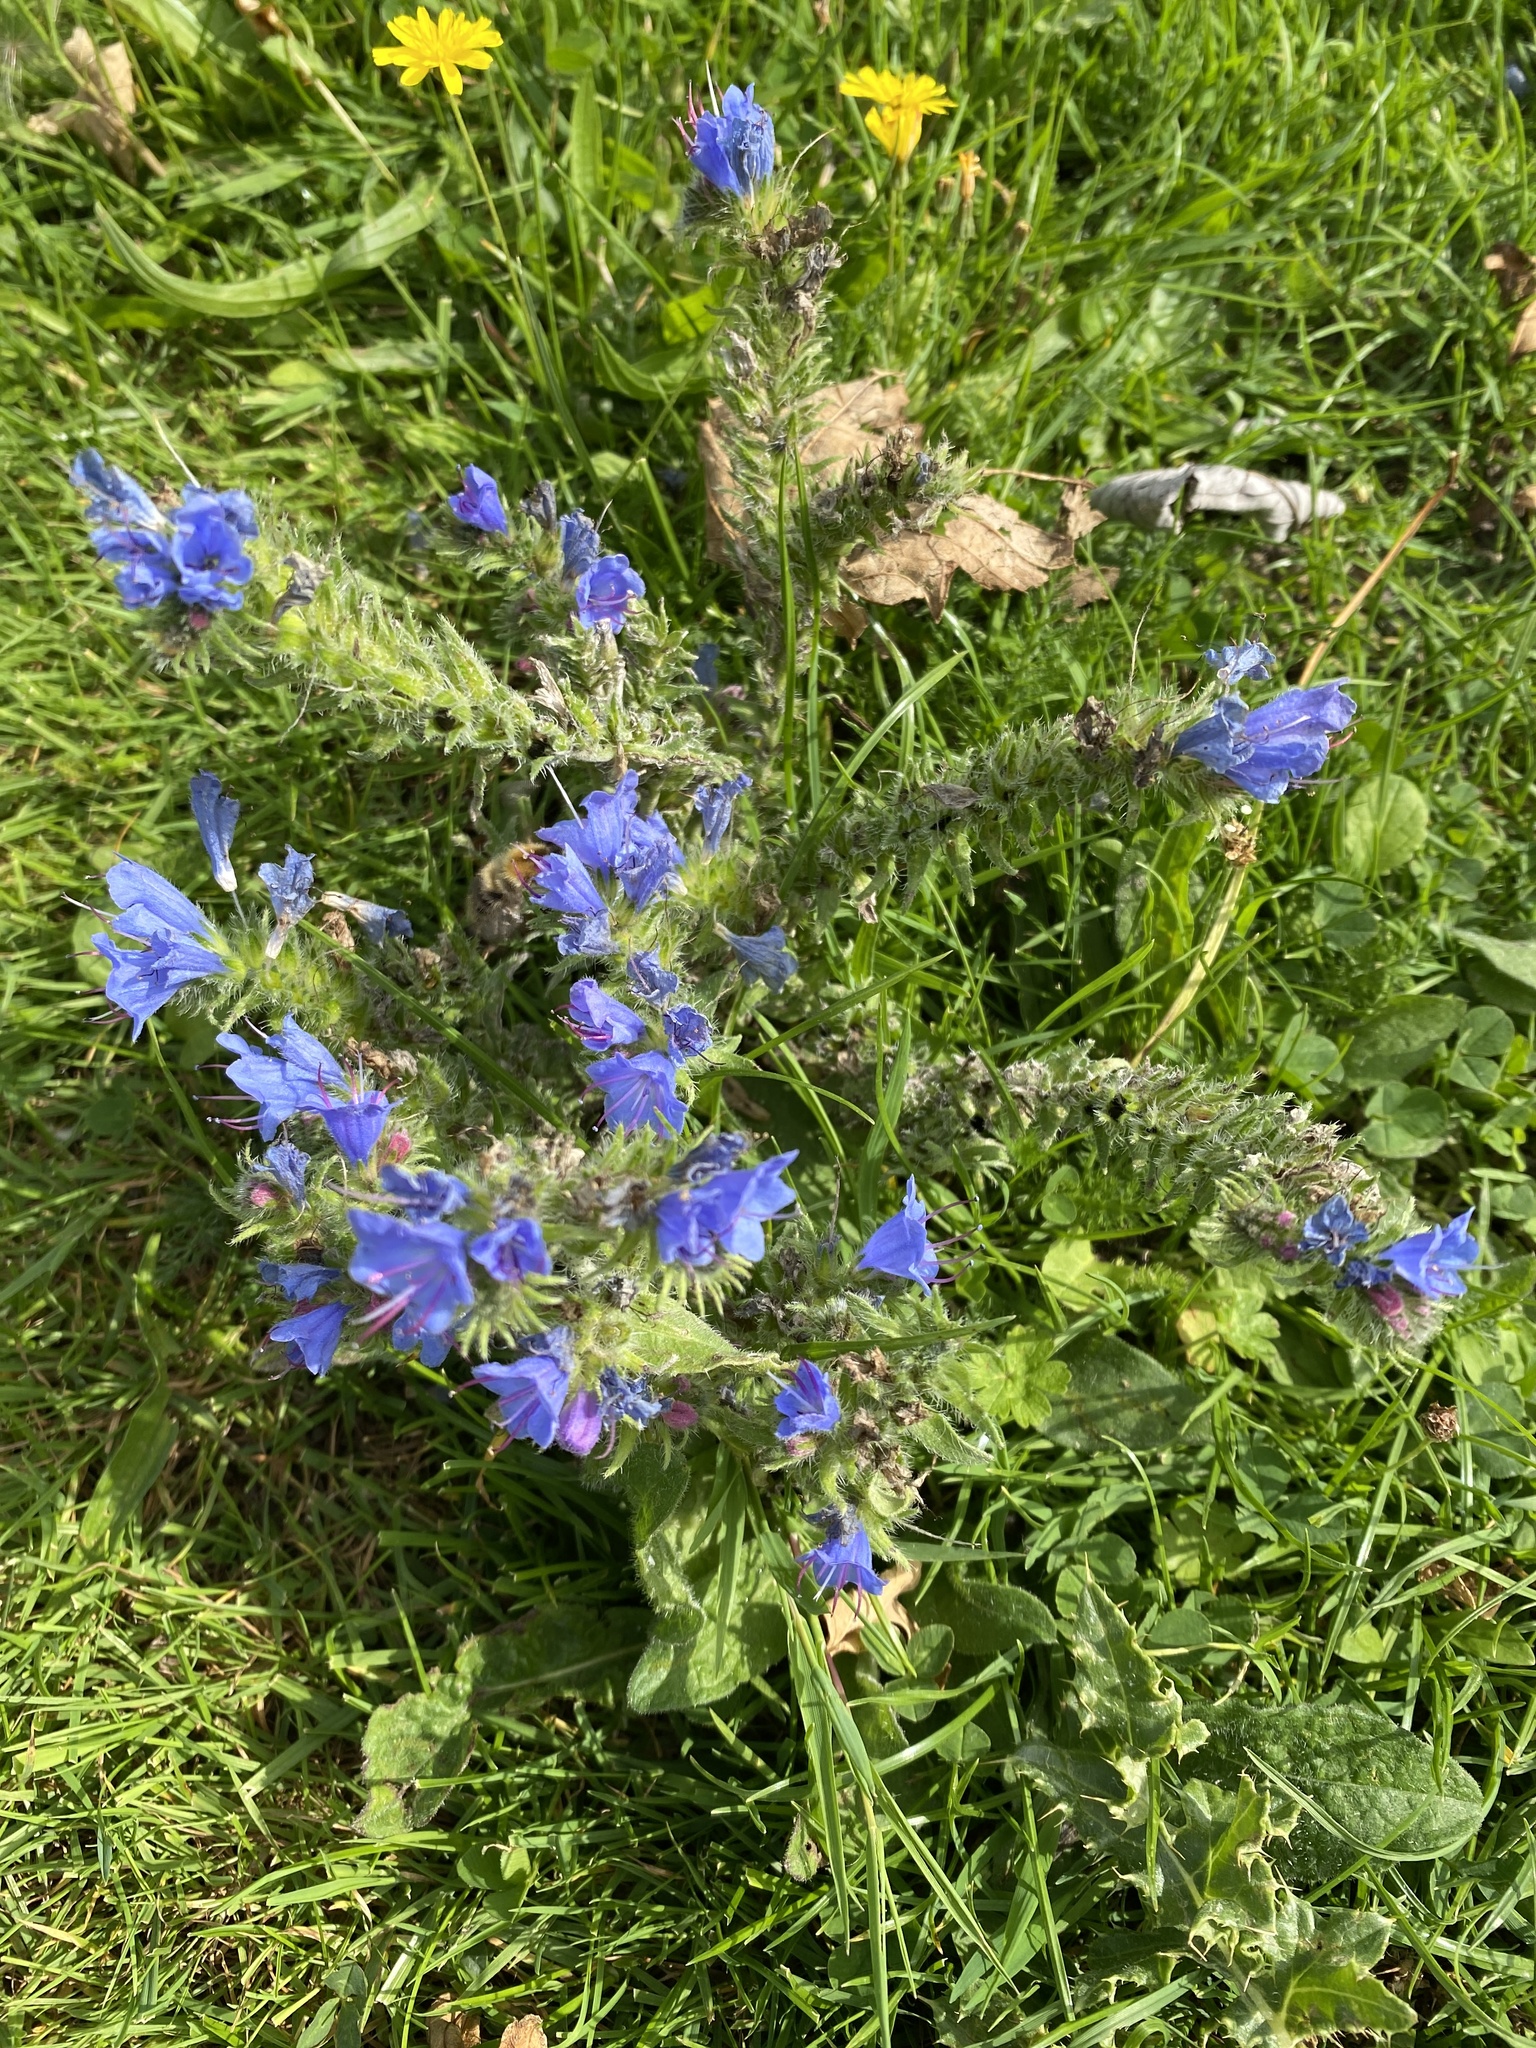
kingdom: Plantae
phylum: Tracheophyta
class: Magnoliopsida
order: Boraginales
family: Boraginaceae
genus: Echium
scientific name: Echium vulgare
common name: Common viper's bugloss
